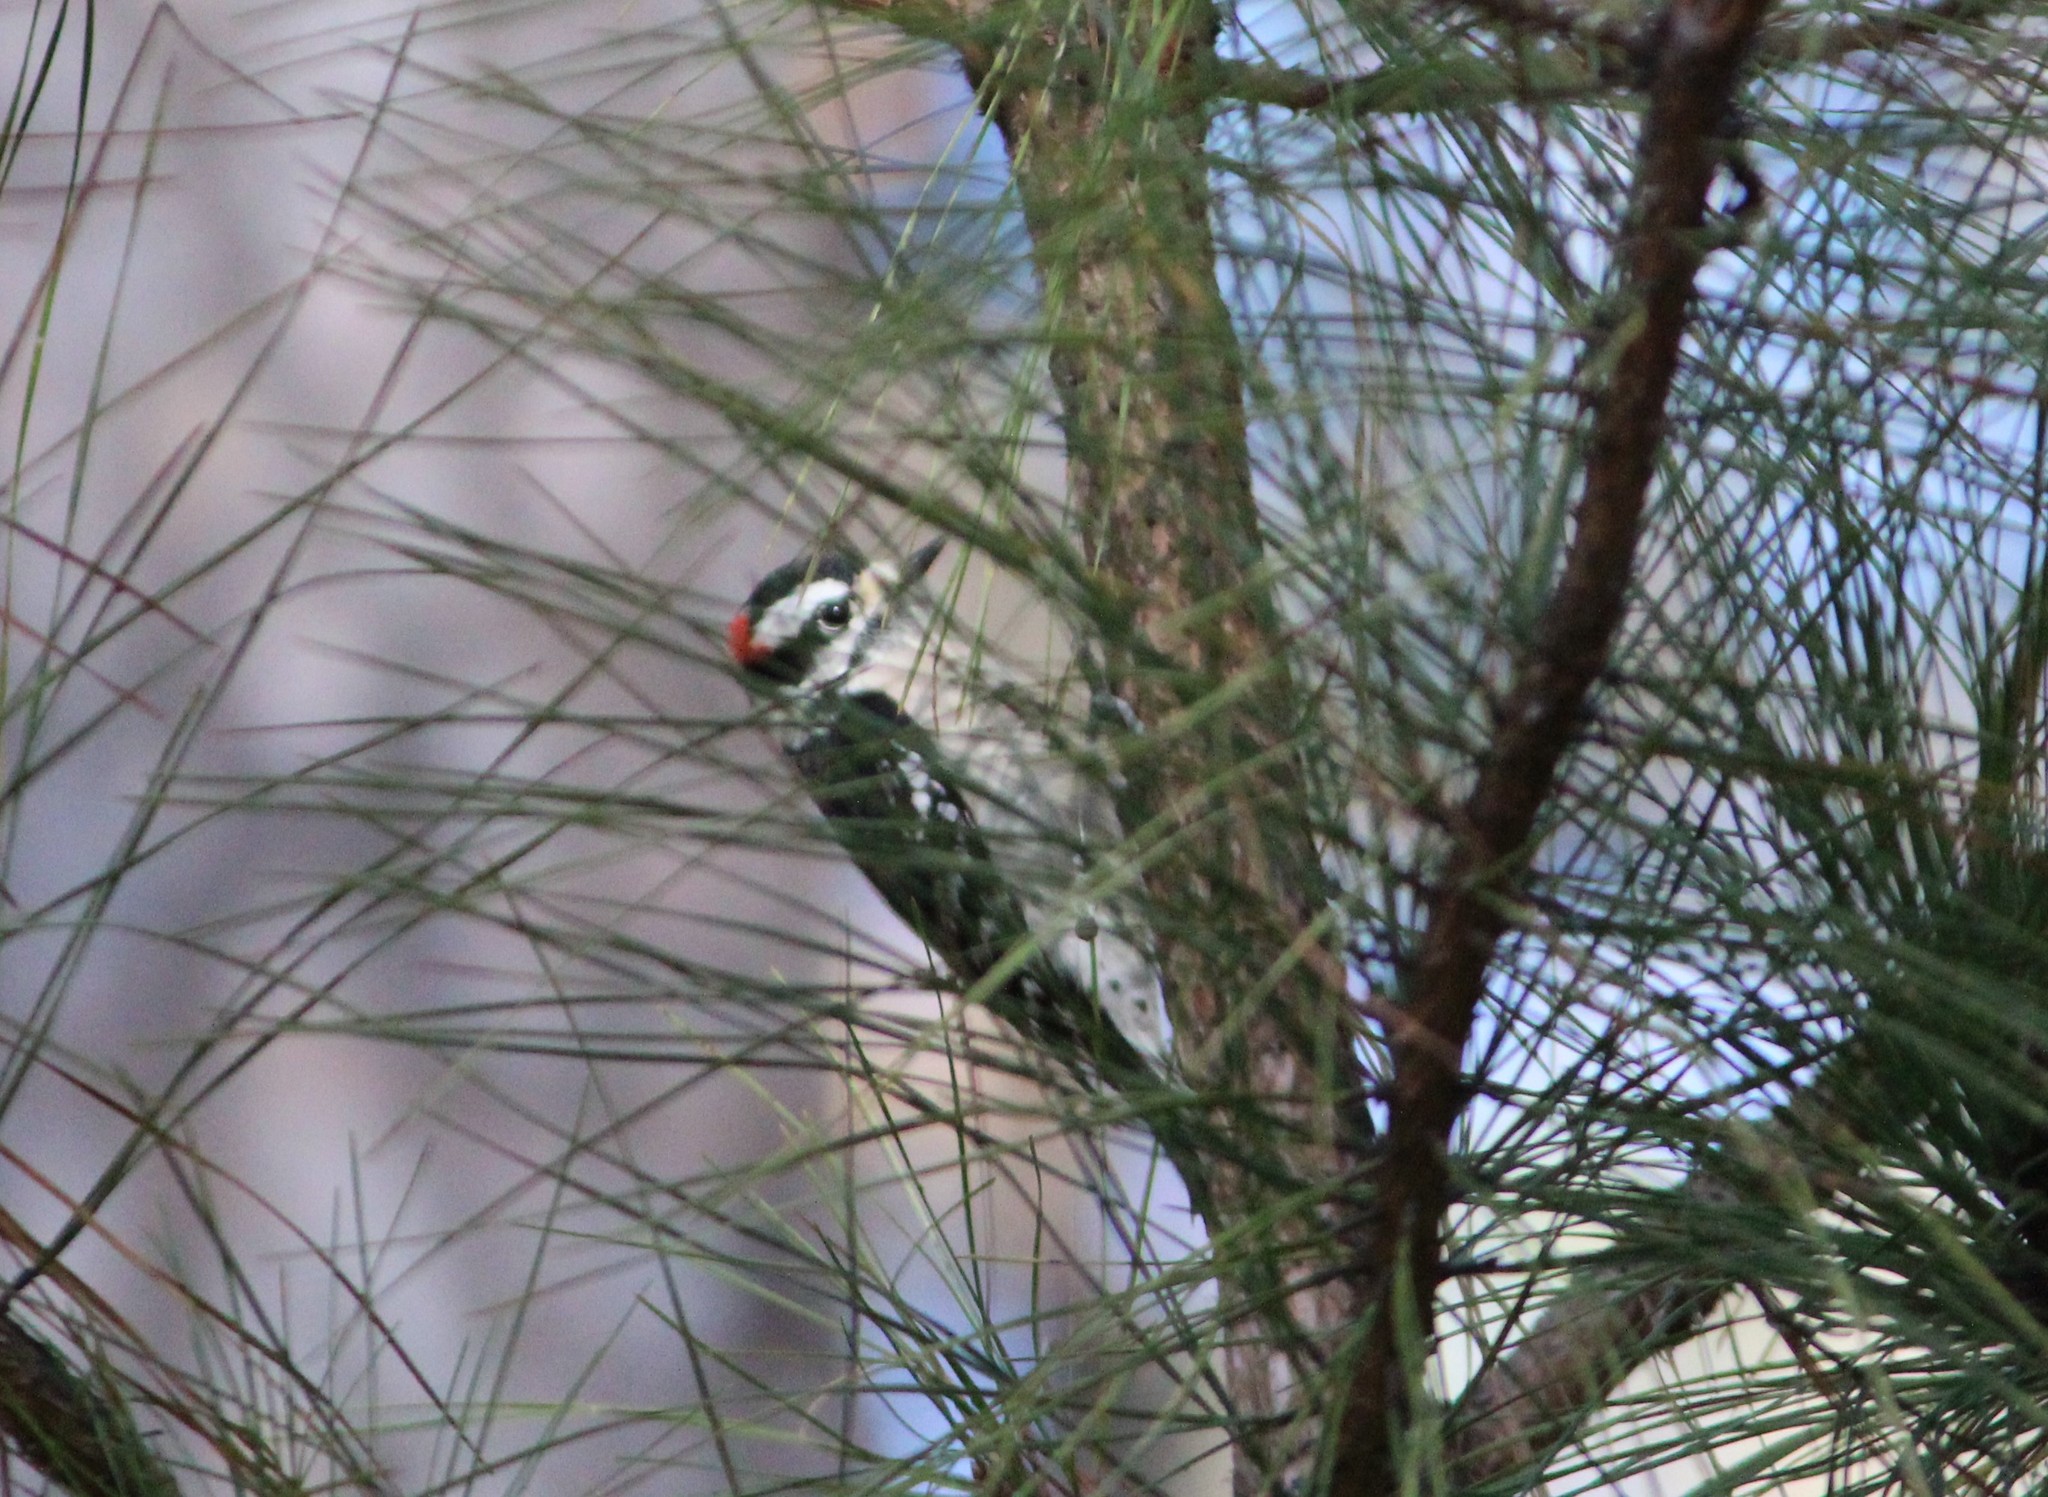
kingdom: Animalia
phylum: Chordata
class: Aves
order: Piciformes
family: Picidae
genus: Dryobates
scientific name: Dryobates pubescens
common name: Downy woodpecker
